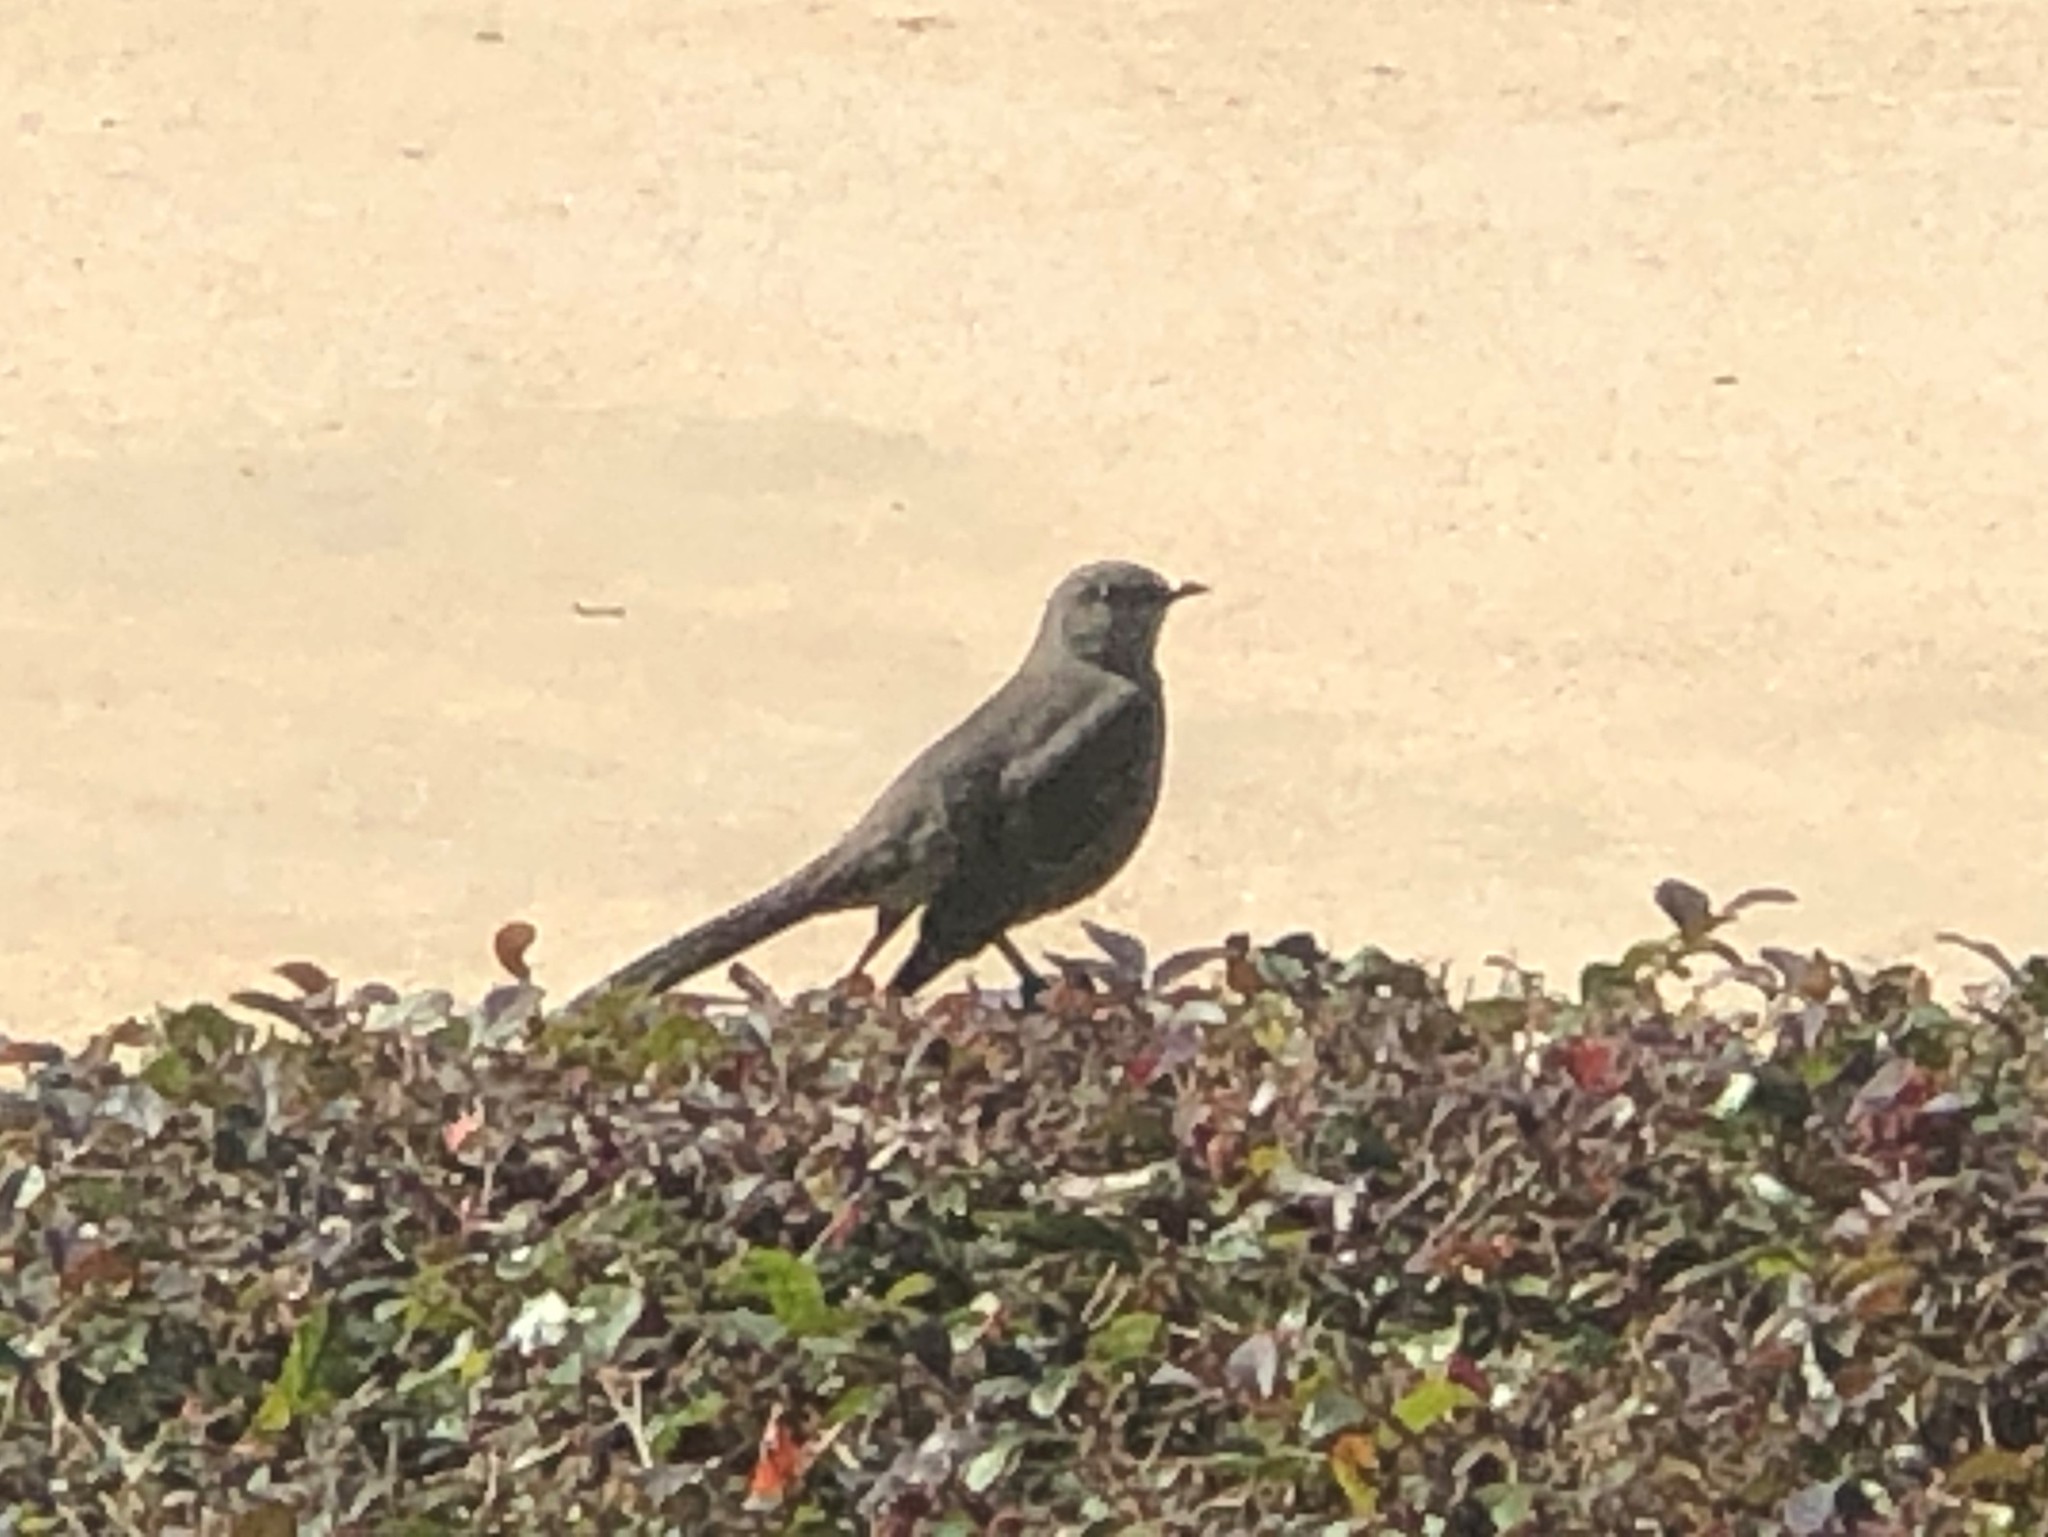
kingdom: Animalia
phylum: Chordata
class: Aves
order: Passeriformes
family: Mimidae
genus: Mimus
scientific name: Mimus polyglottos
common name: Northern mockingbird
